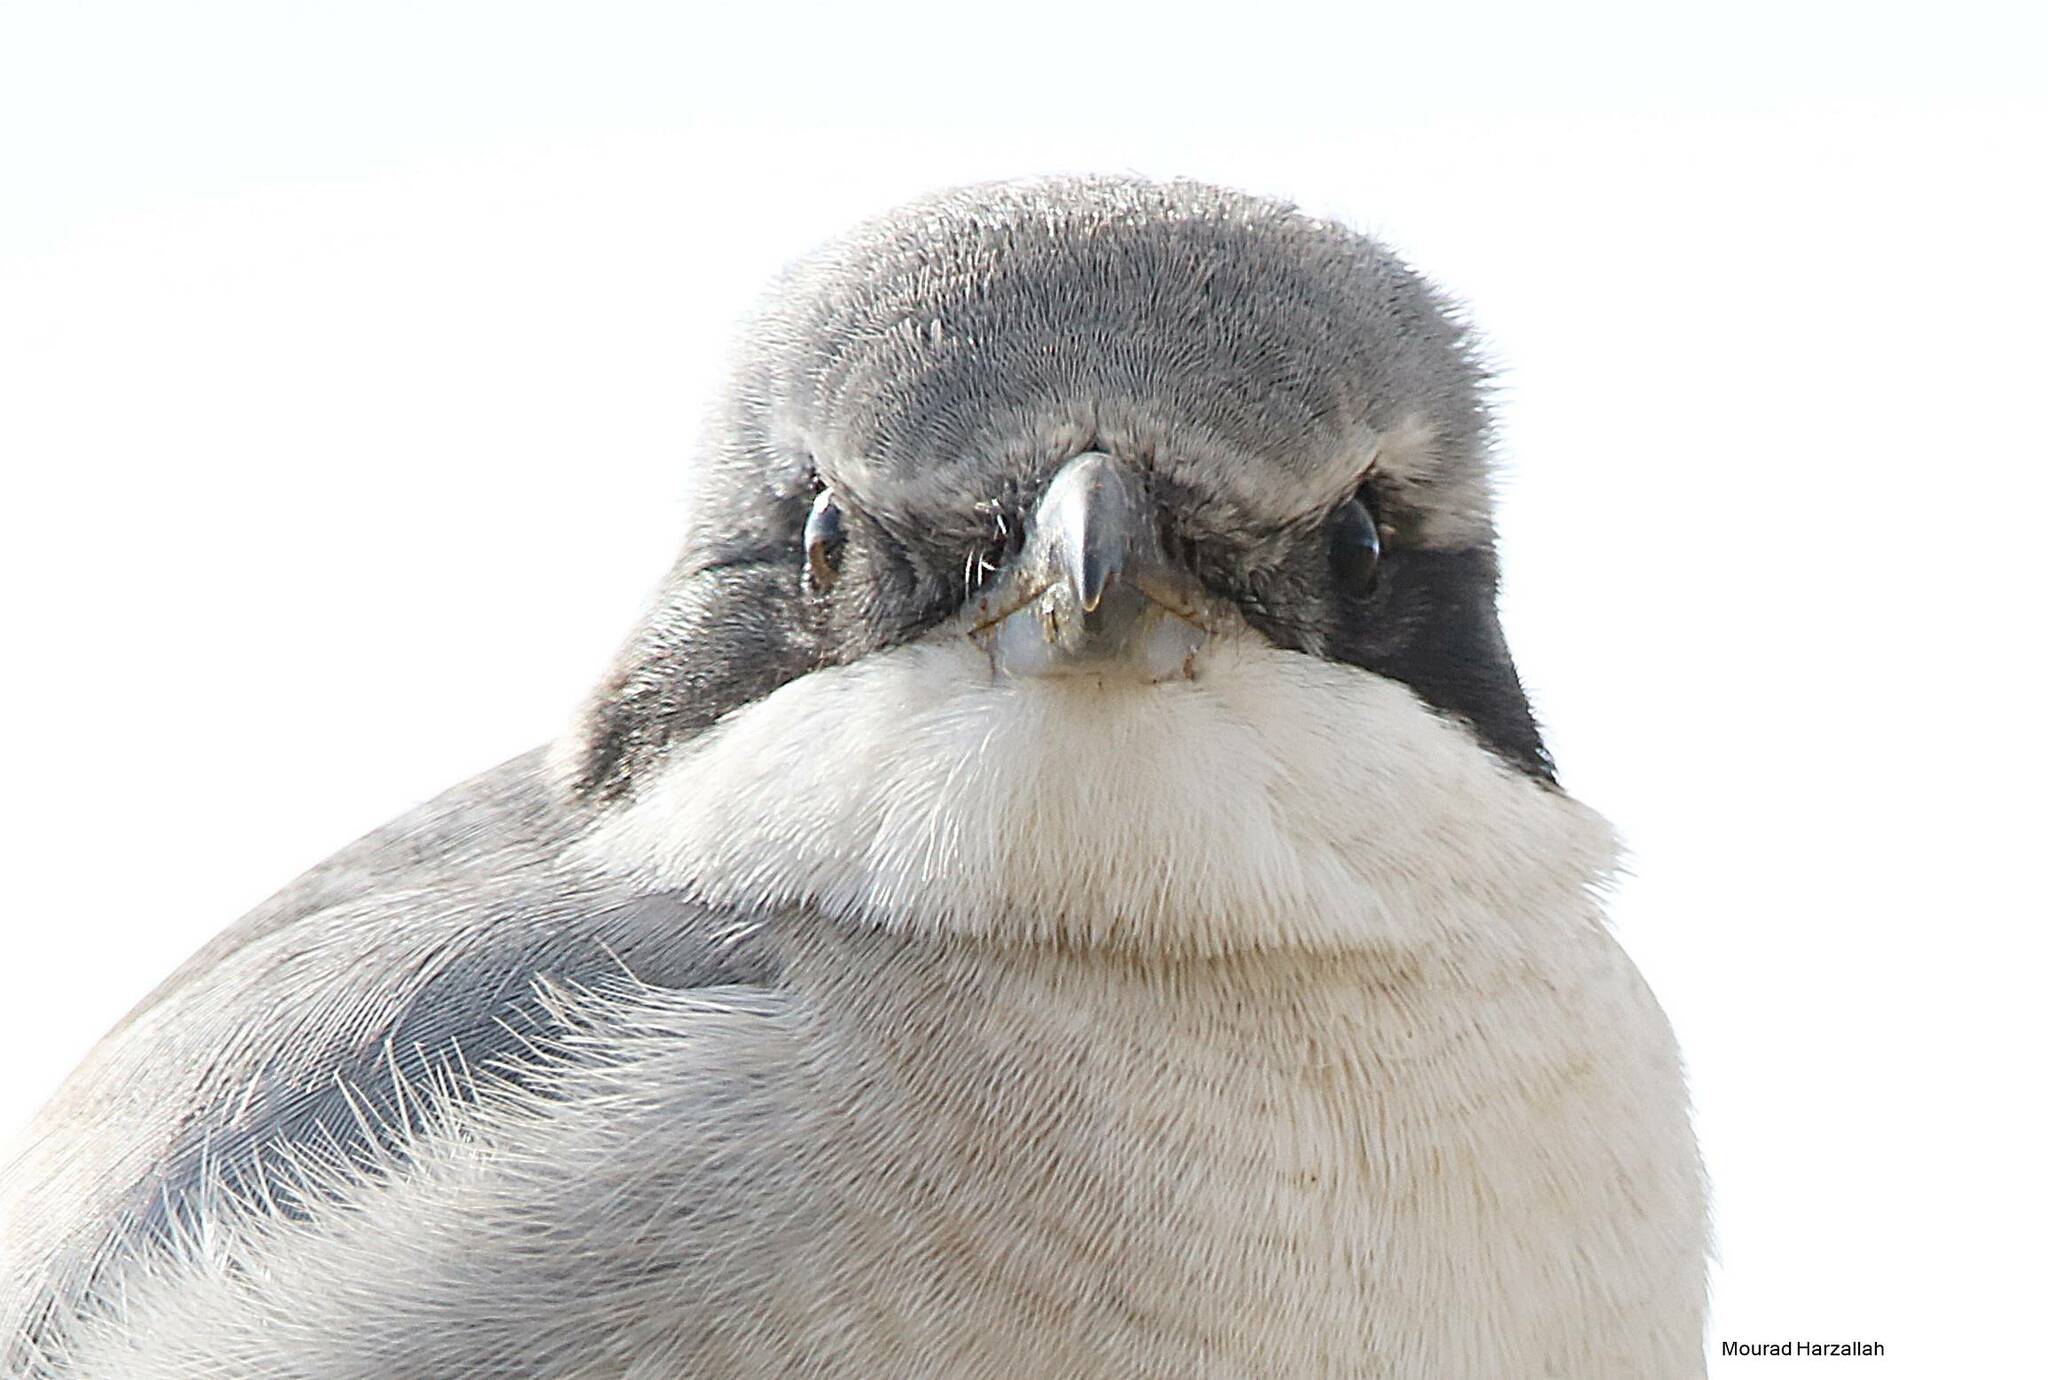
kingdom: Animalia
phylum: Chordata
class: Aves
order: Passeriformes
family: Laniidae
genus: Lanius
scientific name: Lanius excubitor
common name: Great grey shrike
